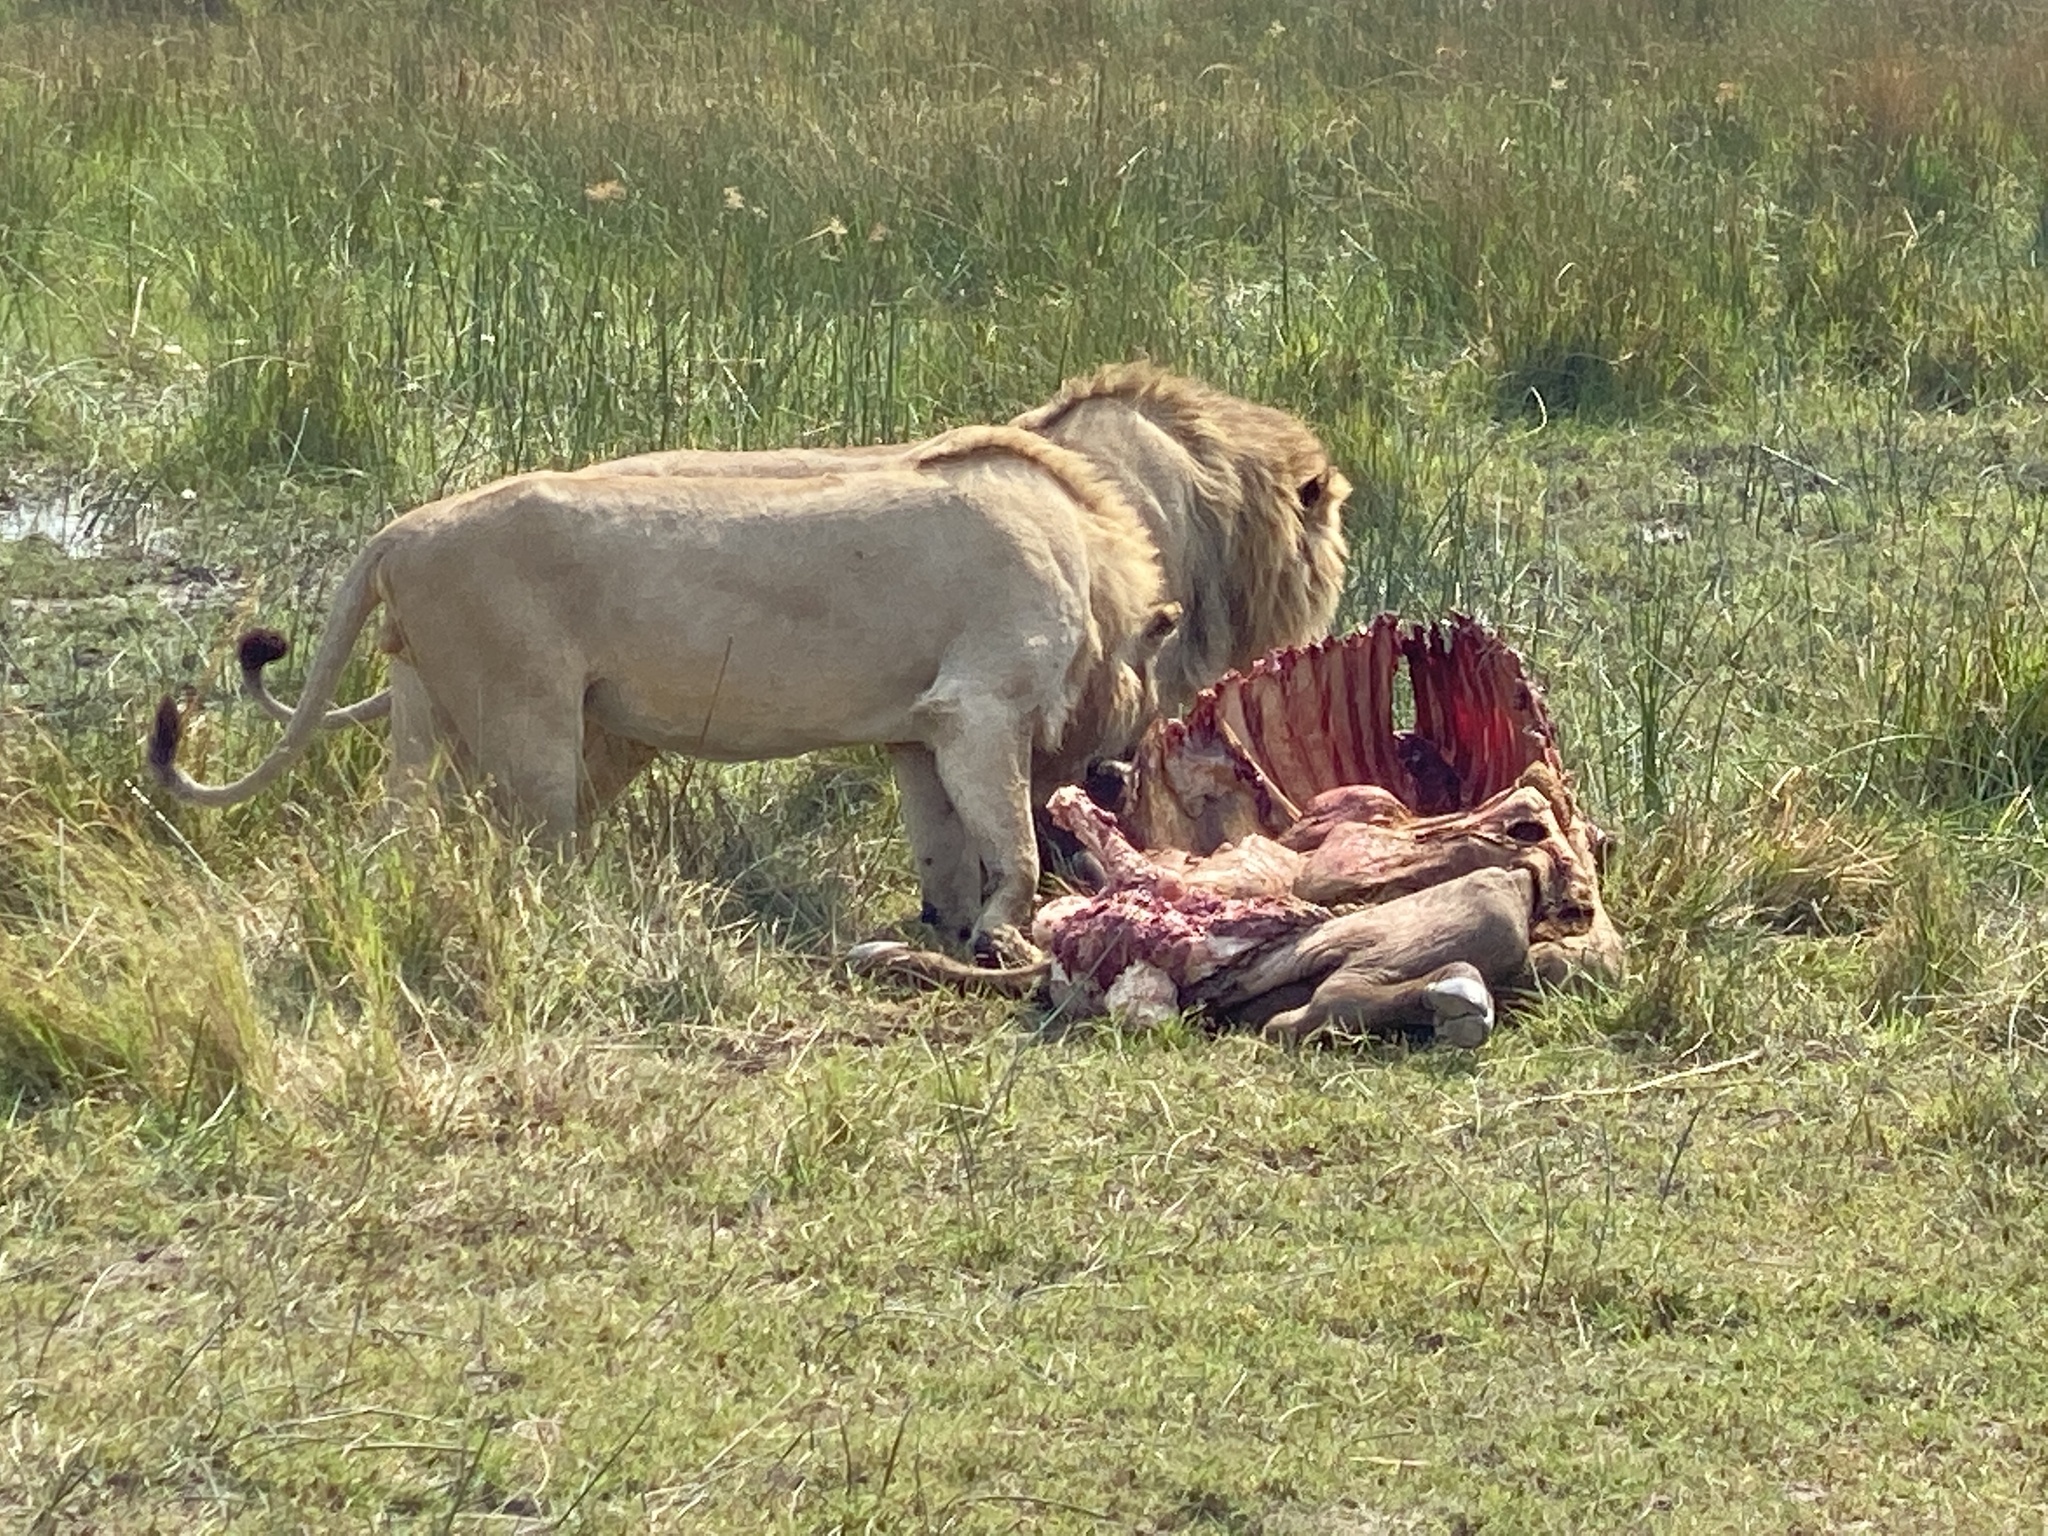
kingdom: Animalia
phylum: Chordata
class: Mammalia
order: Carnivora
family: Felidae
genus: Panthera
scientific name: Panthera leo
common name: Lion
